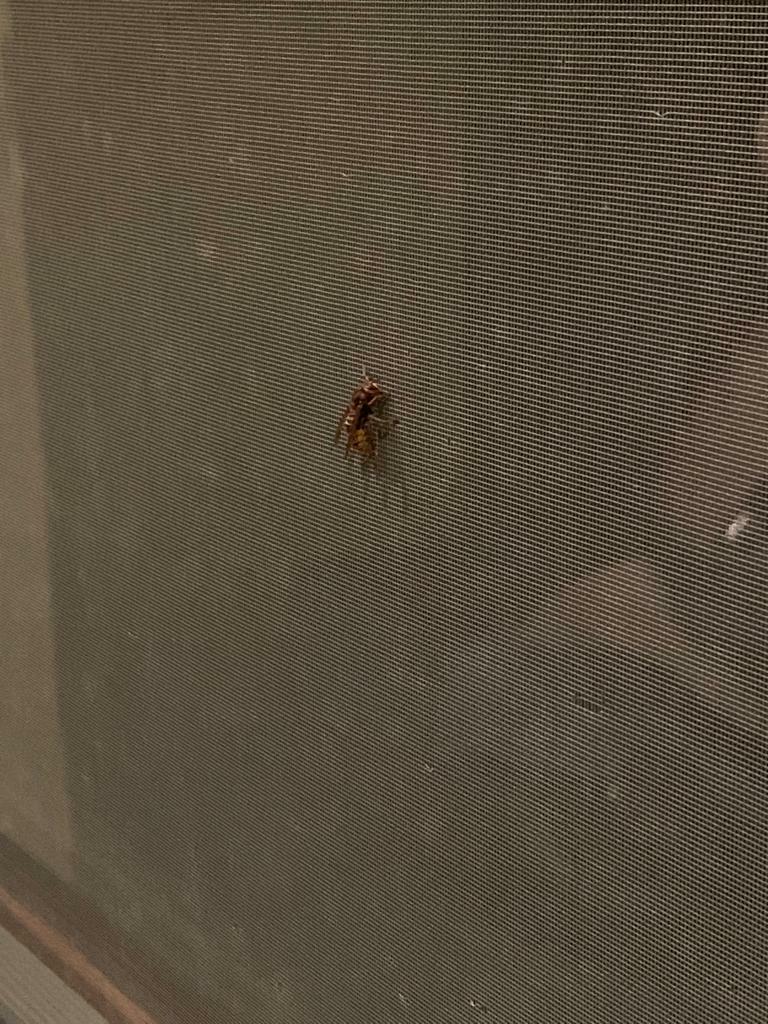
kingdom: Animalia
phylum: Arthropoda
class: Insecta
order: Hymenoptera
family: Vespidae
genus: Vespa
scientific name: Vespa crabro
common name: Hornet
